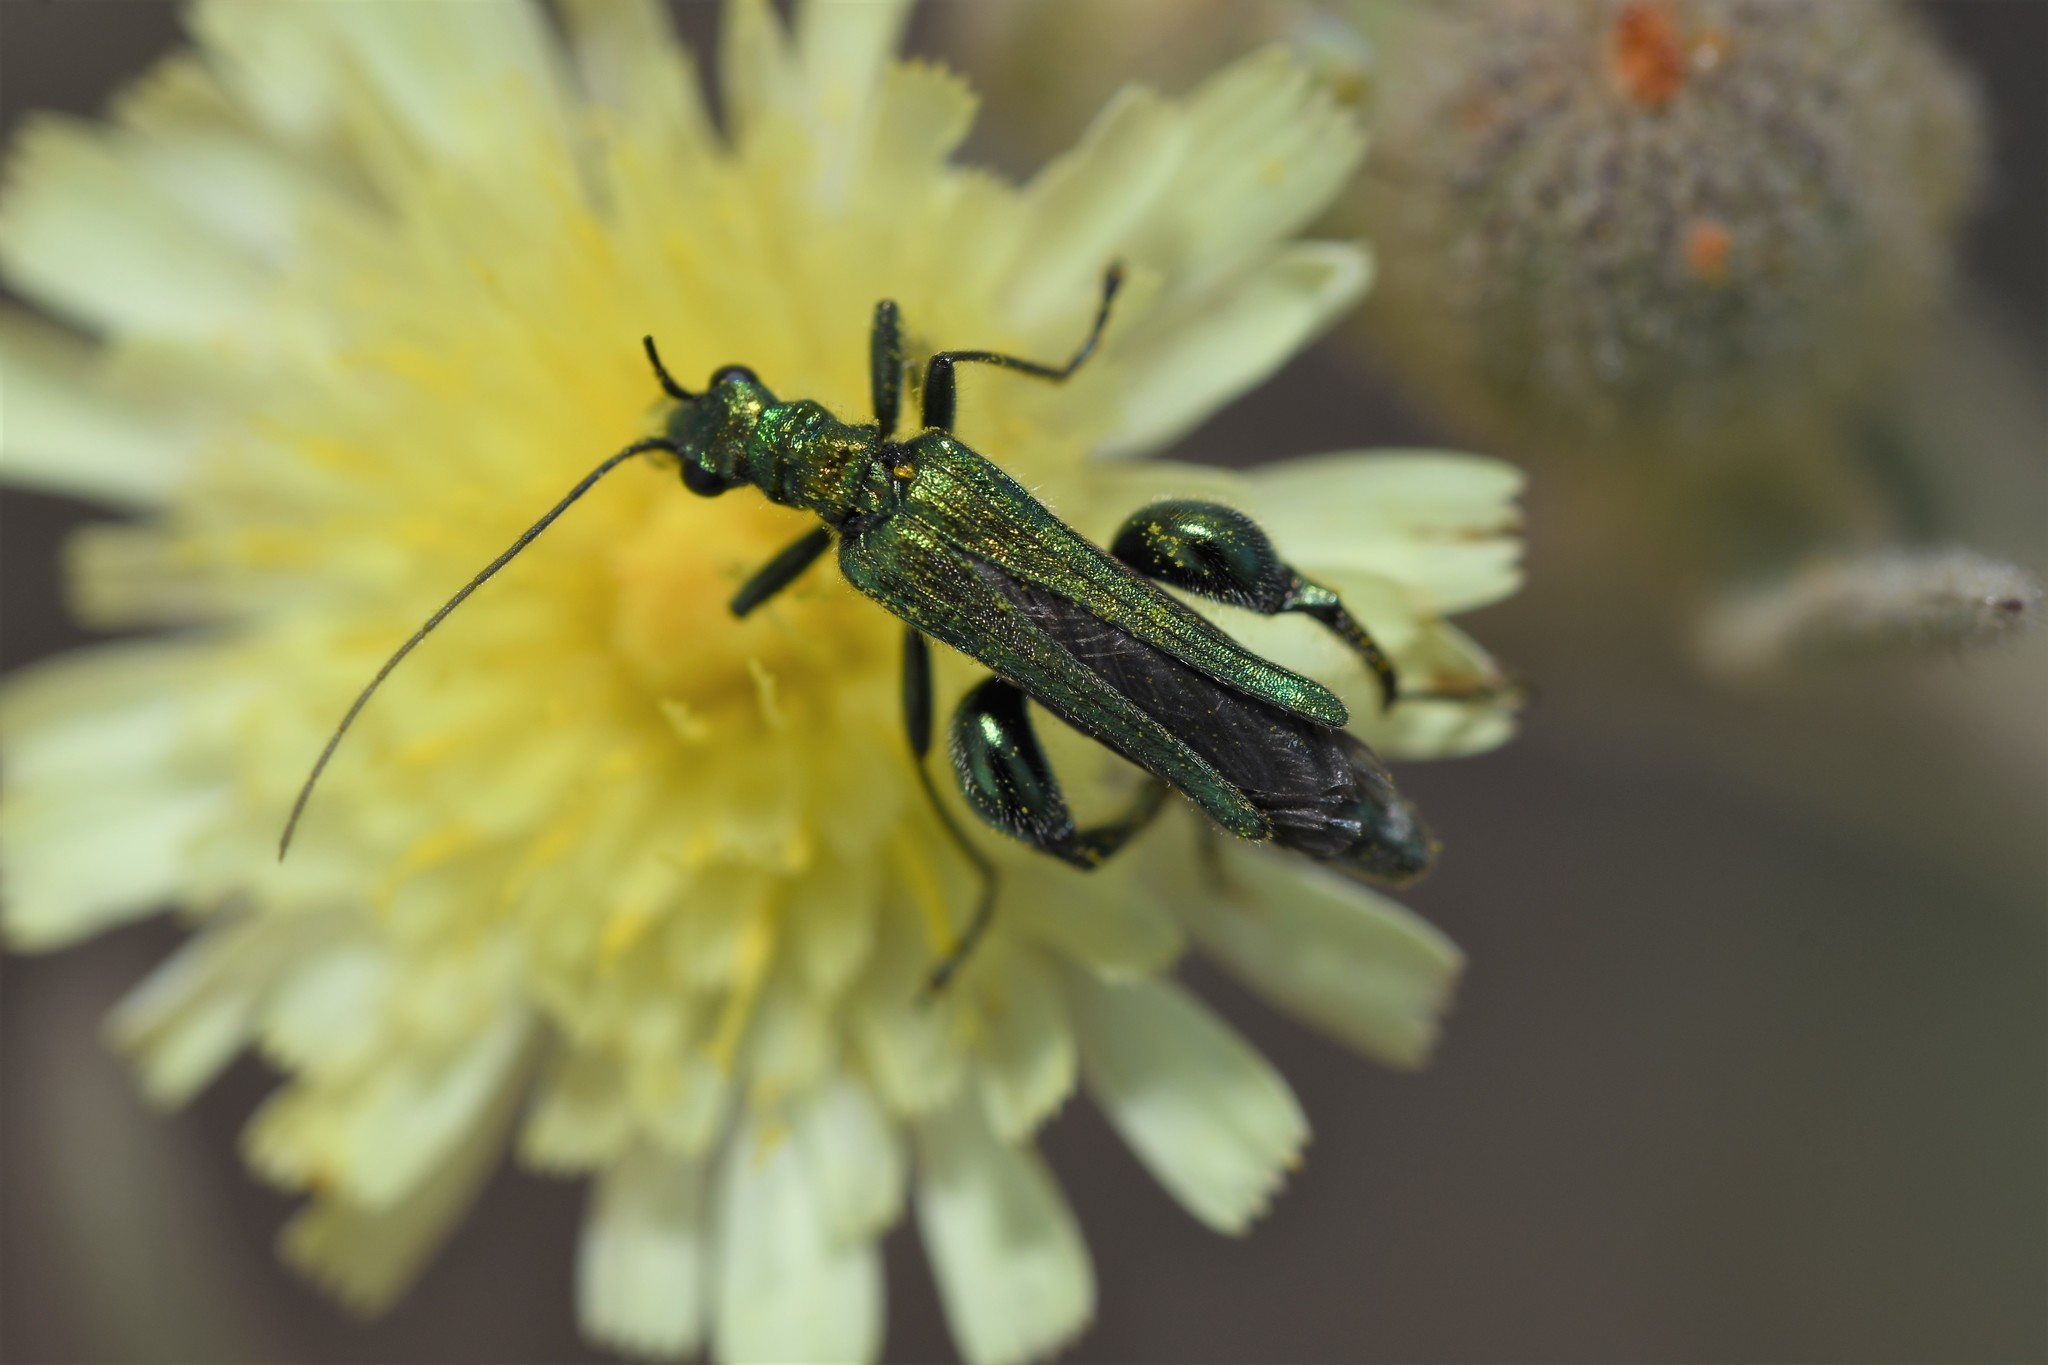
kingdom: Animalia
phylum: Arthropoda
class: Insecta
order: Coleoptera
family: Oedemeridae
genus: Oedemera
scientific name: Oedemera nobilis
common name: Swollen-thighed beetle
